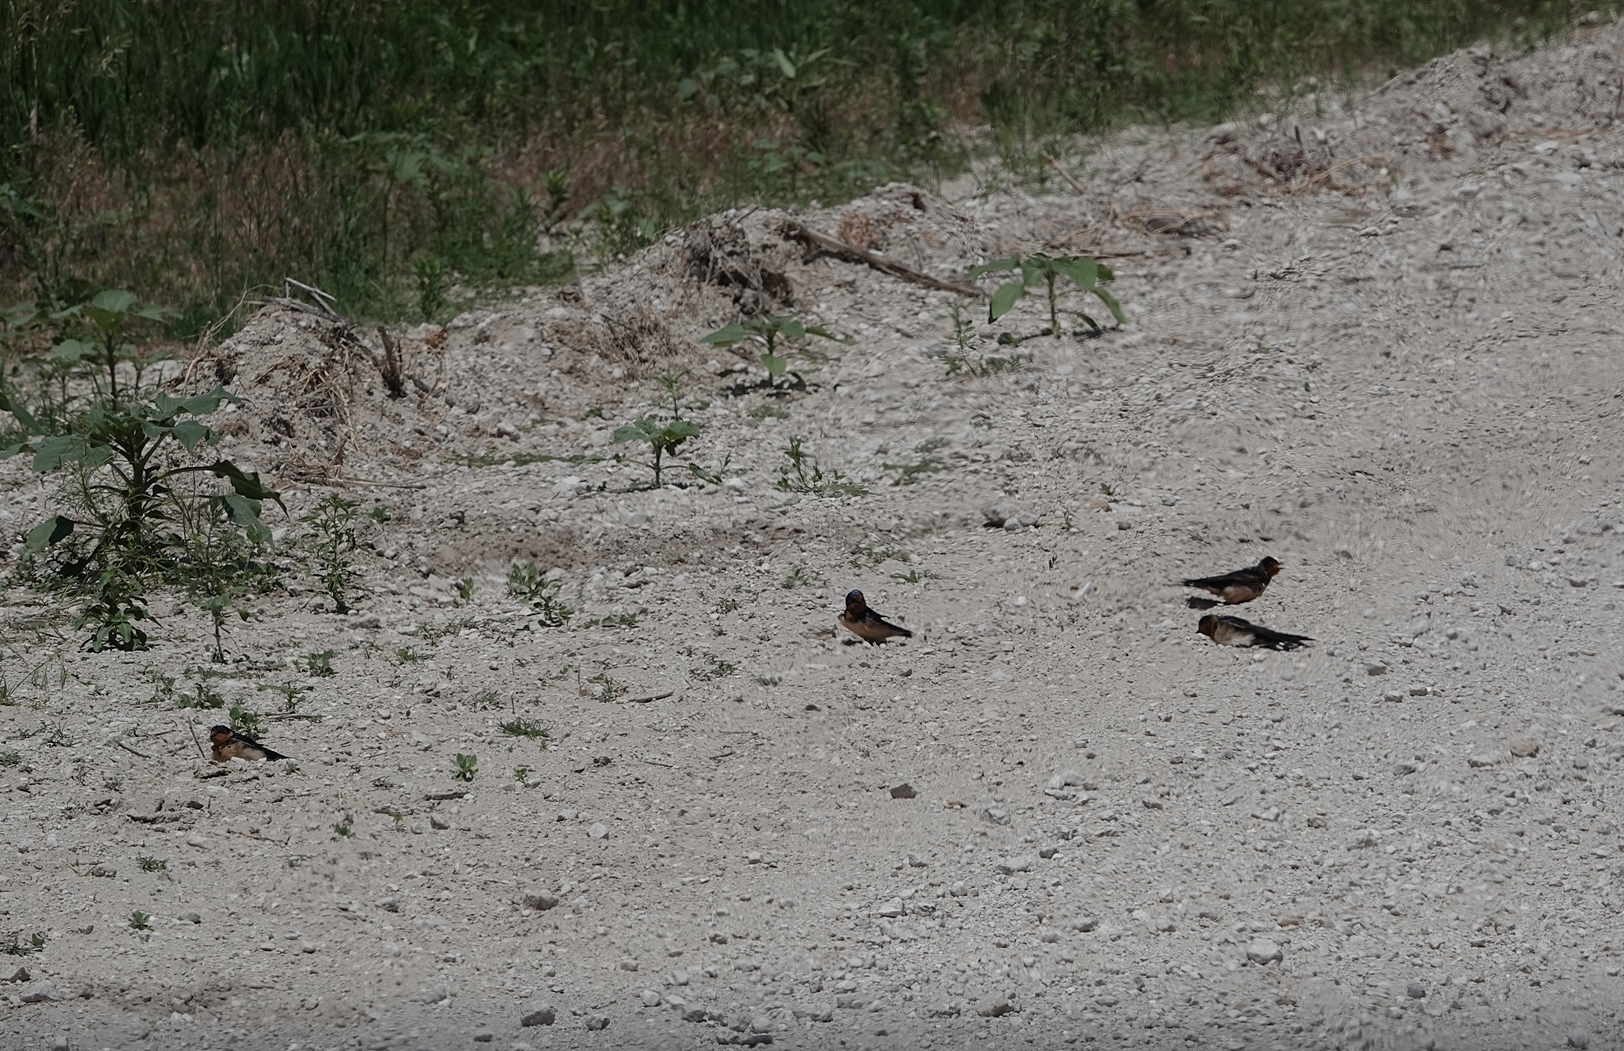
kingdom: Animalia
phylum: Chordata
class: Aves
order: Passeriformes
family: Hirundinidae
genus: Hirundo
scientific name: Hirundo rustica
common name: Barn swallow
